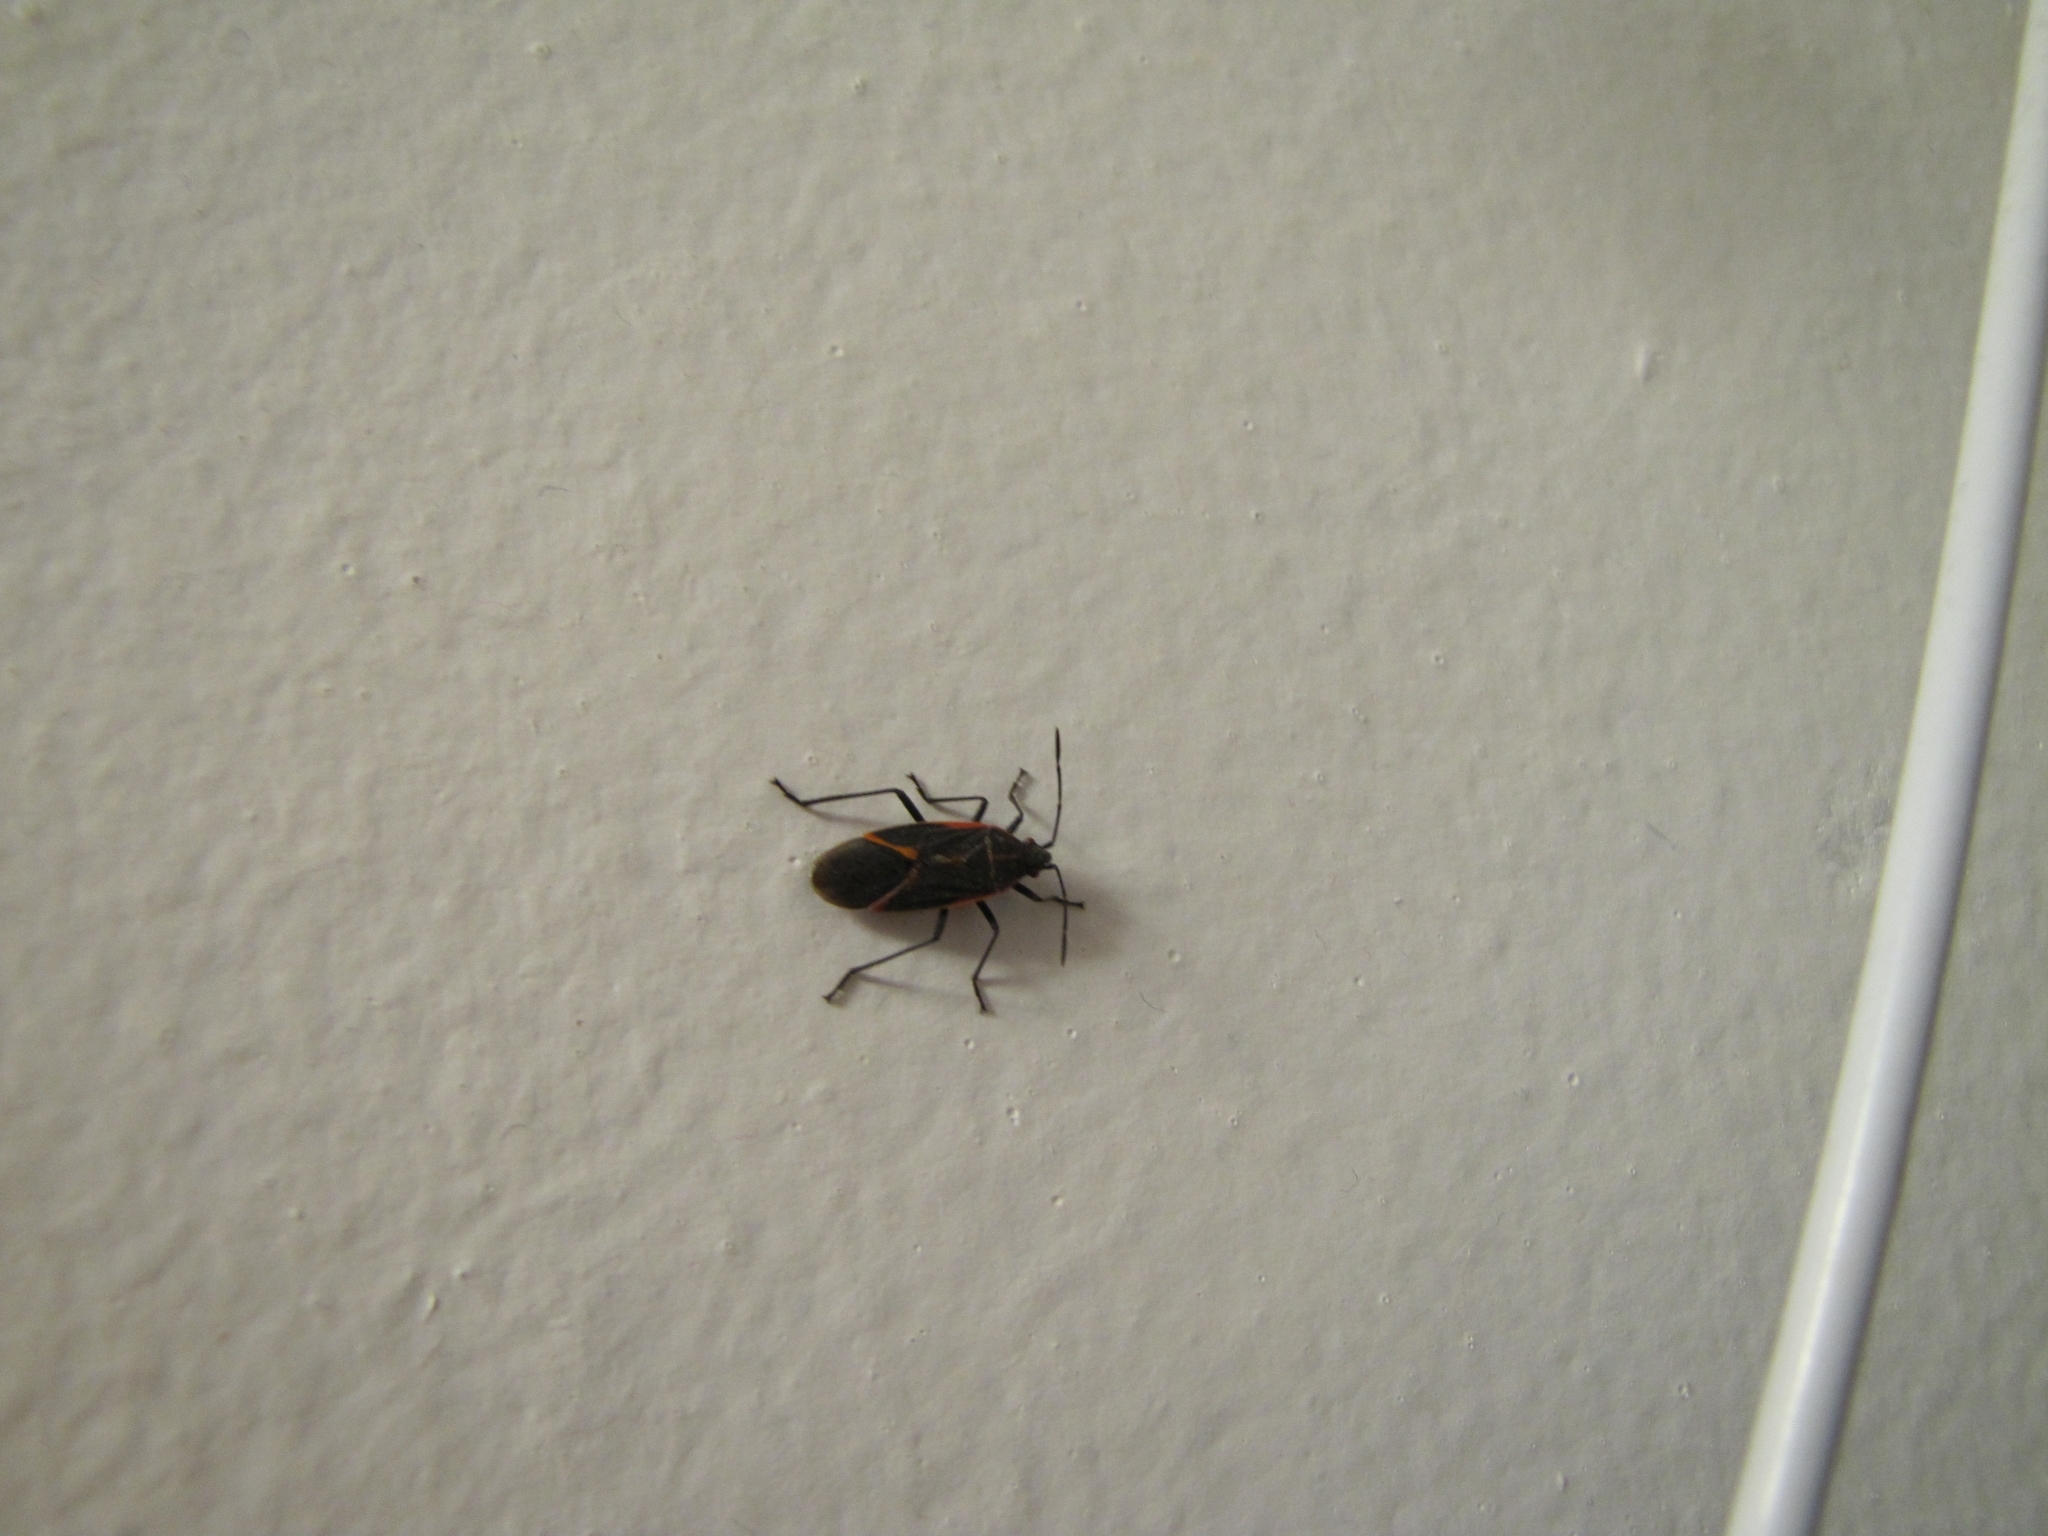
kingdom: Animalia
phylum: Arthropoda
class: Insecta
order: Hemiptera
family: Rhopalidae
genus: Boisea
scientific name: Boisea trivittata
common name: Boxelder bug
